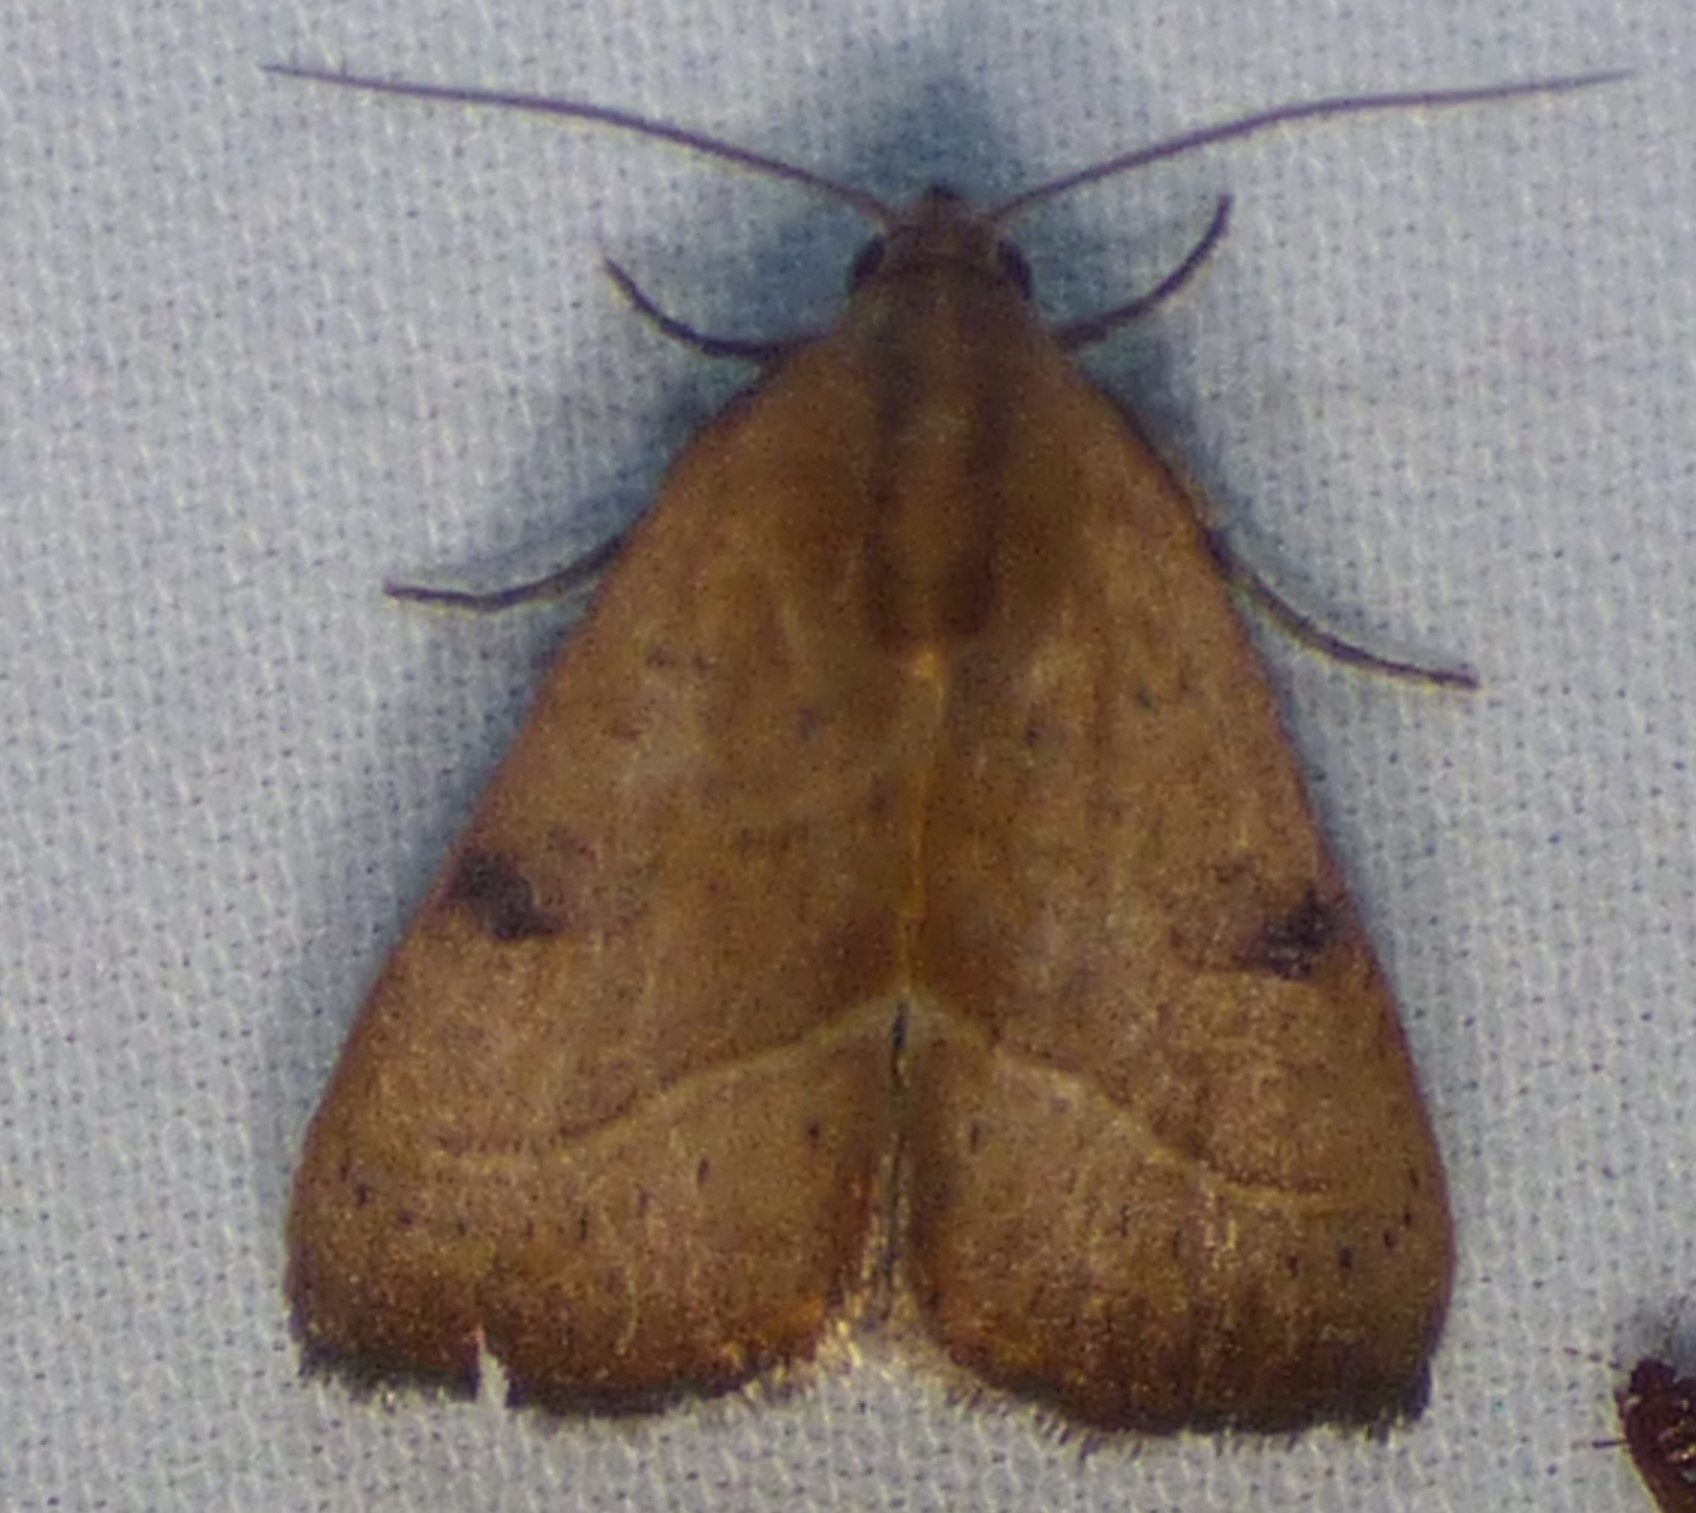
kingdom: Animalia
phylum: Arthropoda
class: Insecta
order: Lepidoptera
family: Noctuidae
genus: Galgula
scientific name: Galgula partita
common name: Wedgeling
